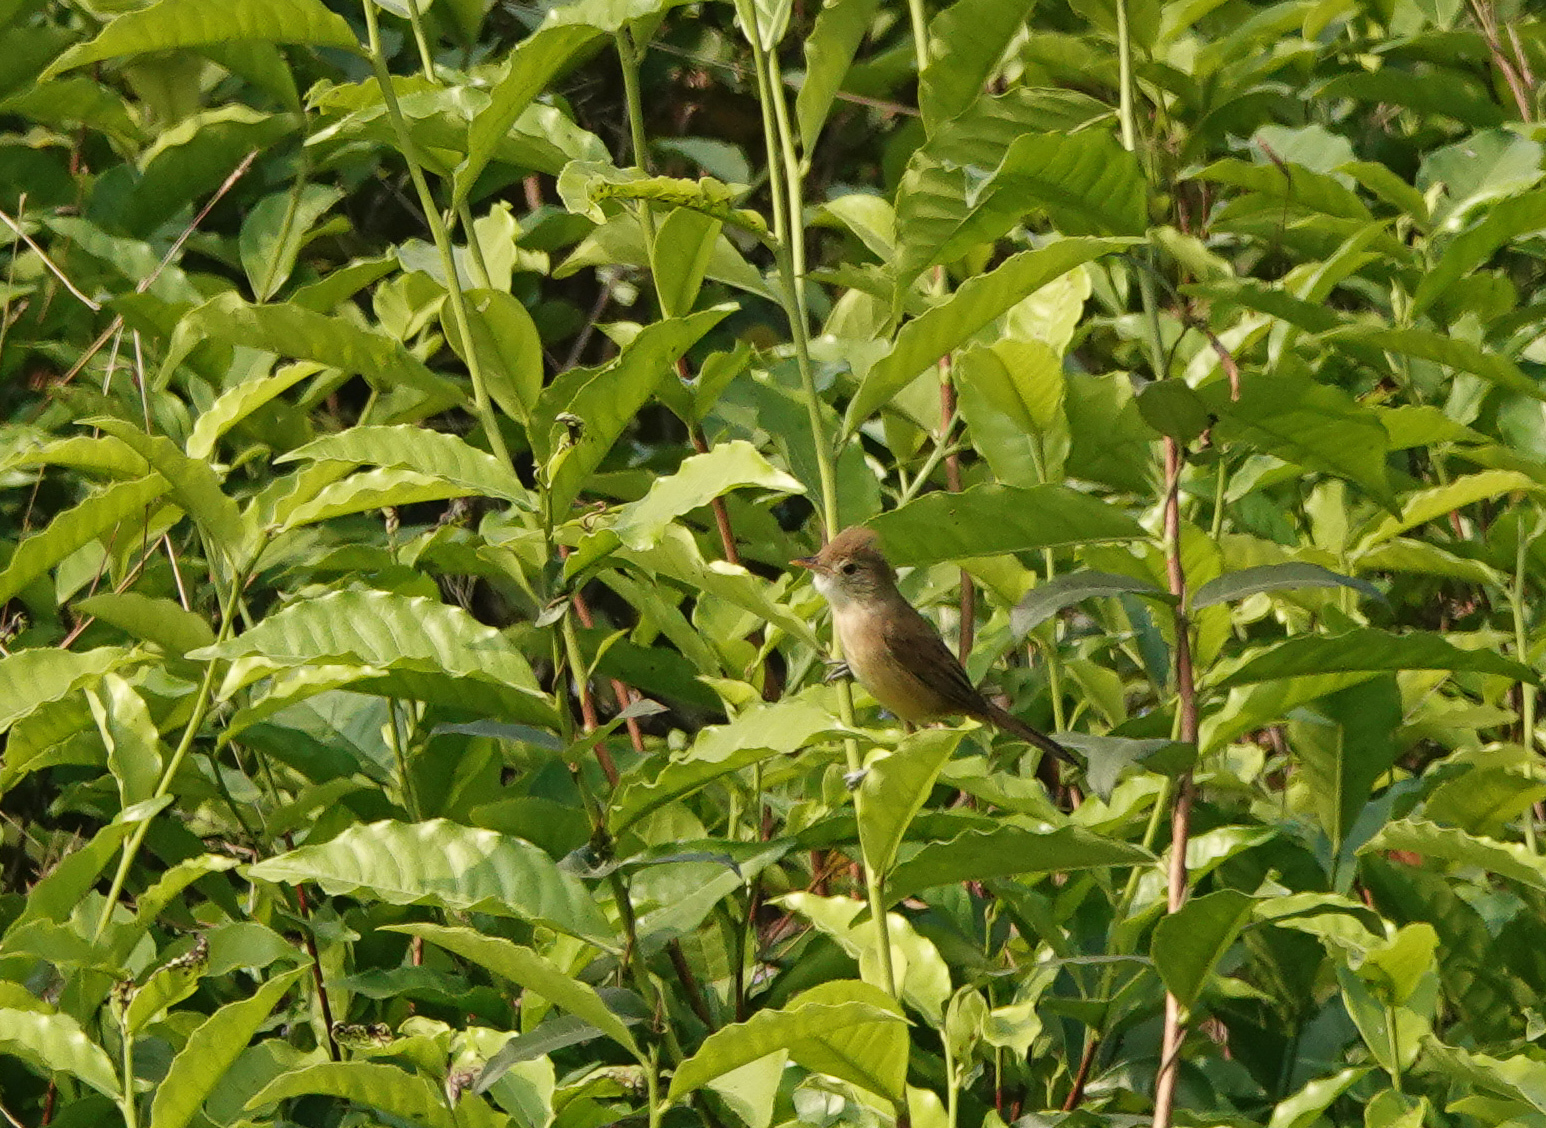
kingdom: Animalia
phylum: Chordata
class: Aves
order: Passeriformes
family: Acrocephalidae
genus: Iduna
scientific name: Iduna aedon
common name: Thick-billed warbler
